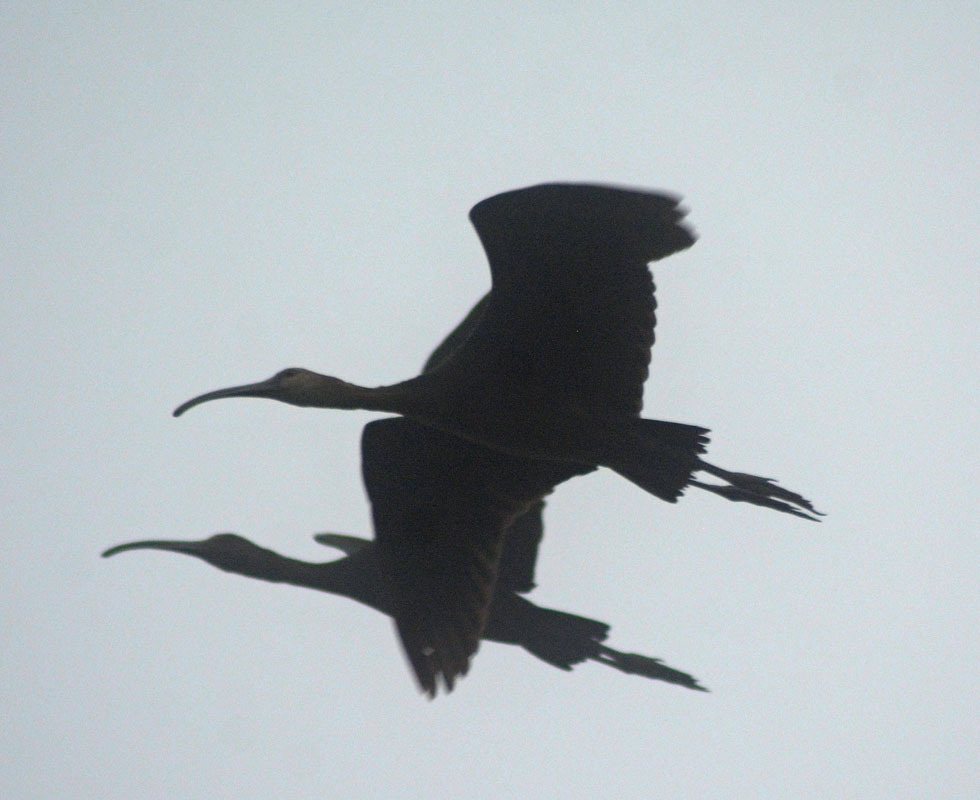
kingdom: Animalia
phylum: Chordata
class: Aves
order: Pelecaniformes
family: Threskiornithidae
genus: Plegadis
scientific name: Plegadis chihi
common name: White-faced ibis
